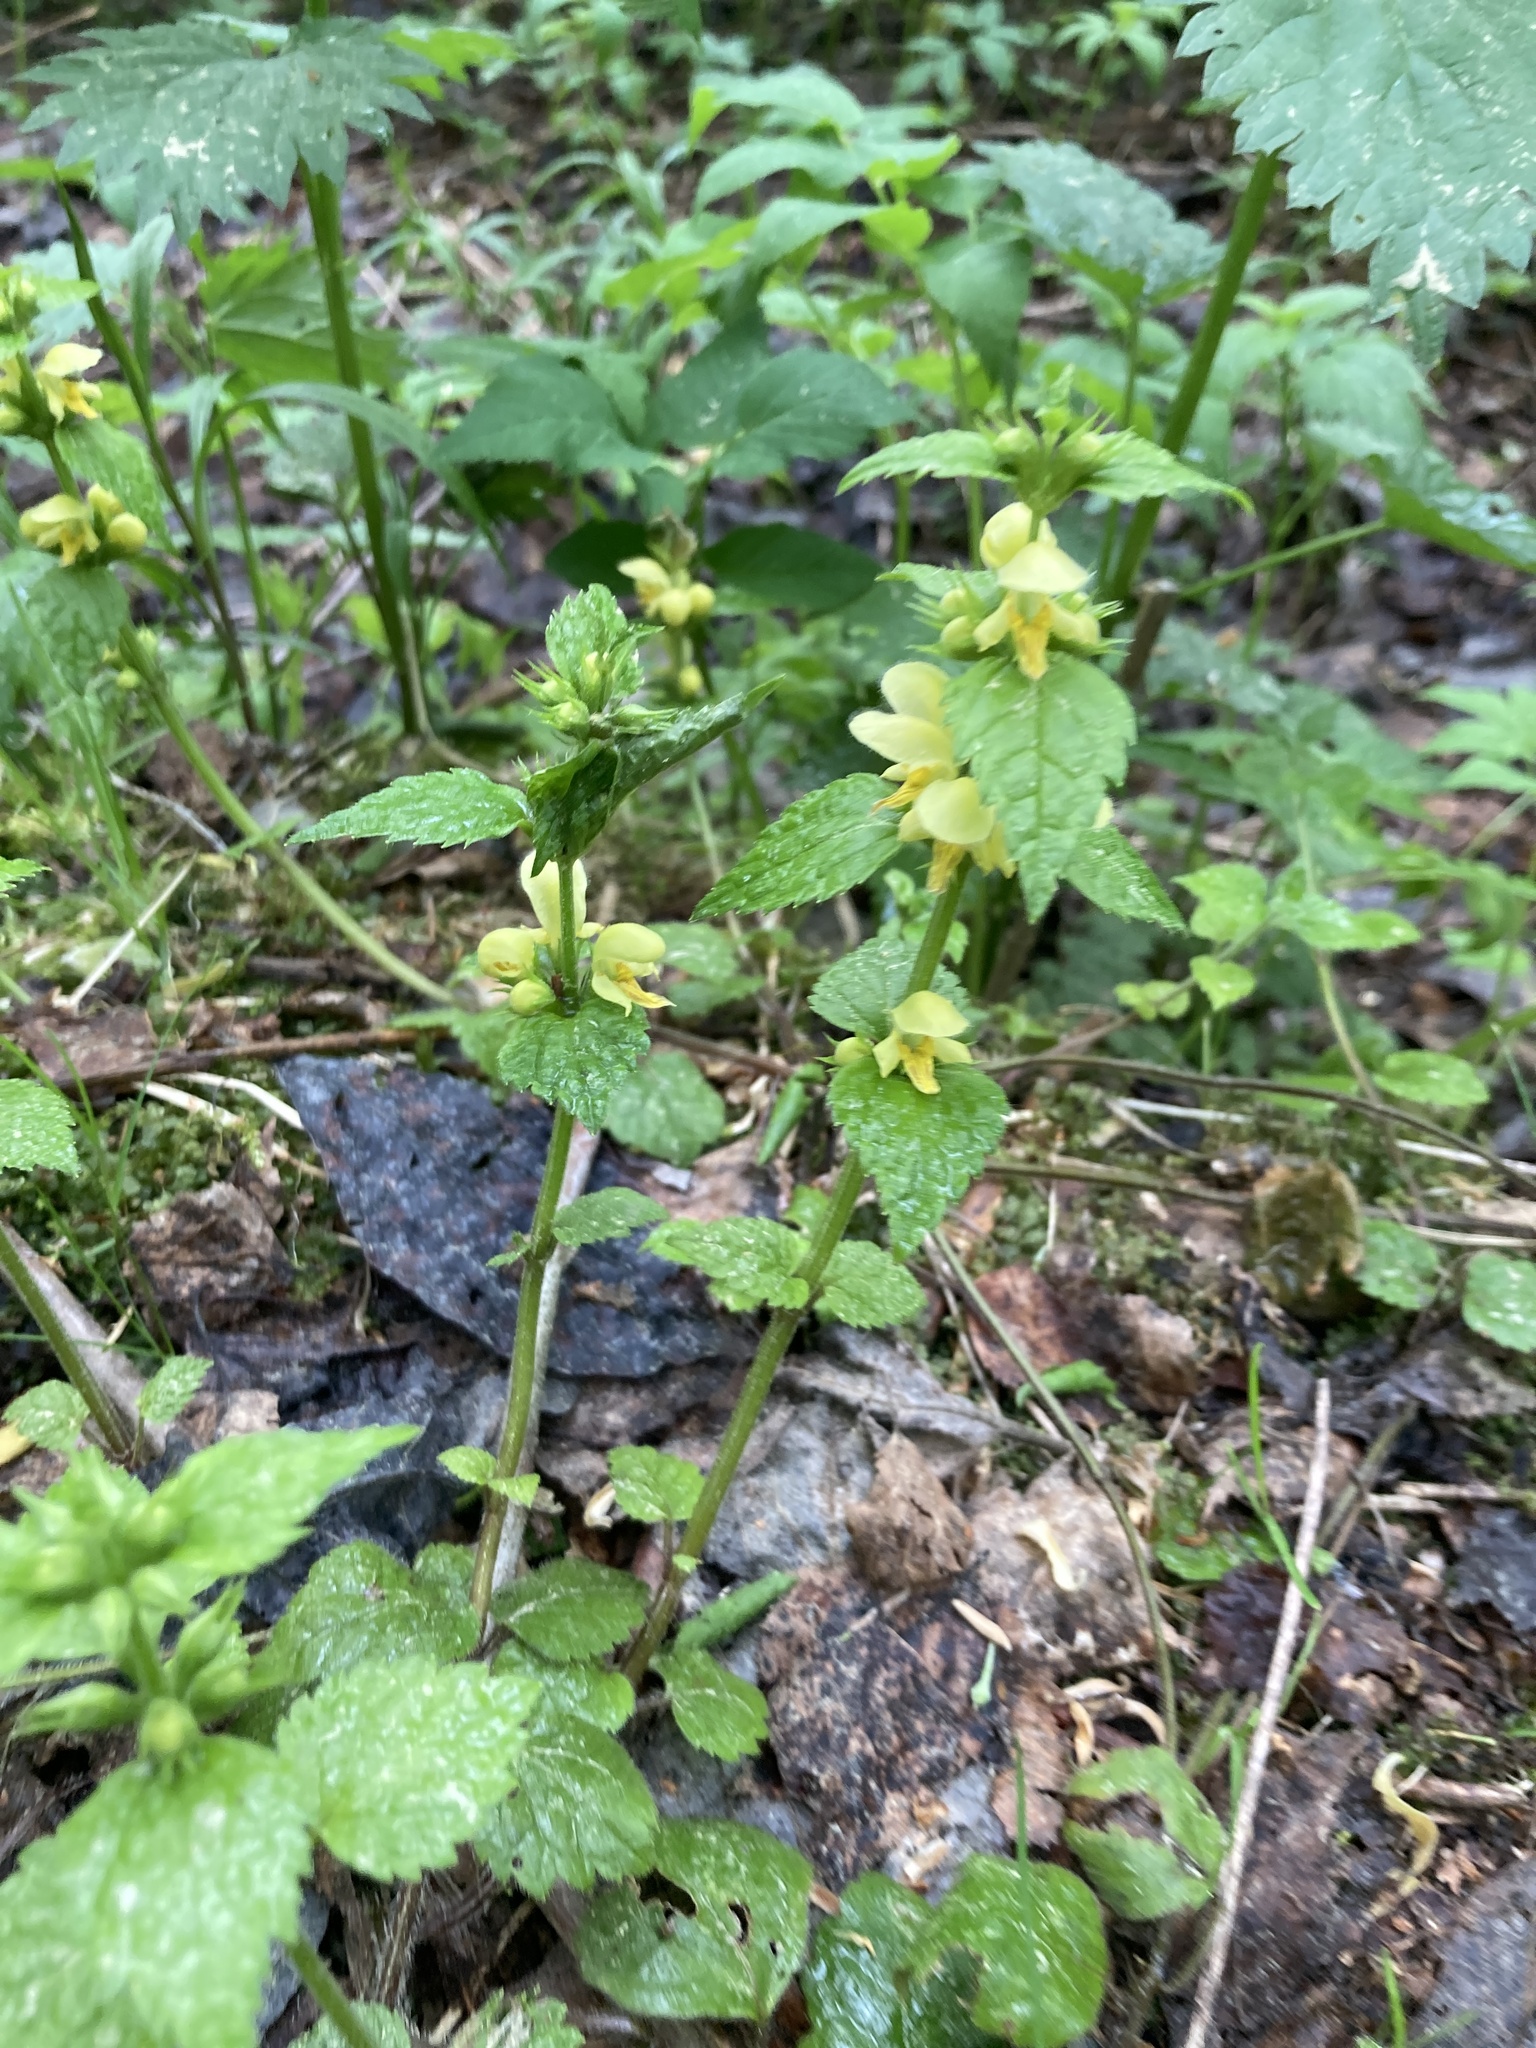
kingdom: Plantae
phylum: Tracheophyta
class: Magnoliopsida
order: Lamiales
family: Lamiaceae
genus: Lamium
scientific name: Lamium galeobdolon
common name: Yellow archangel
